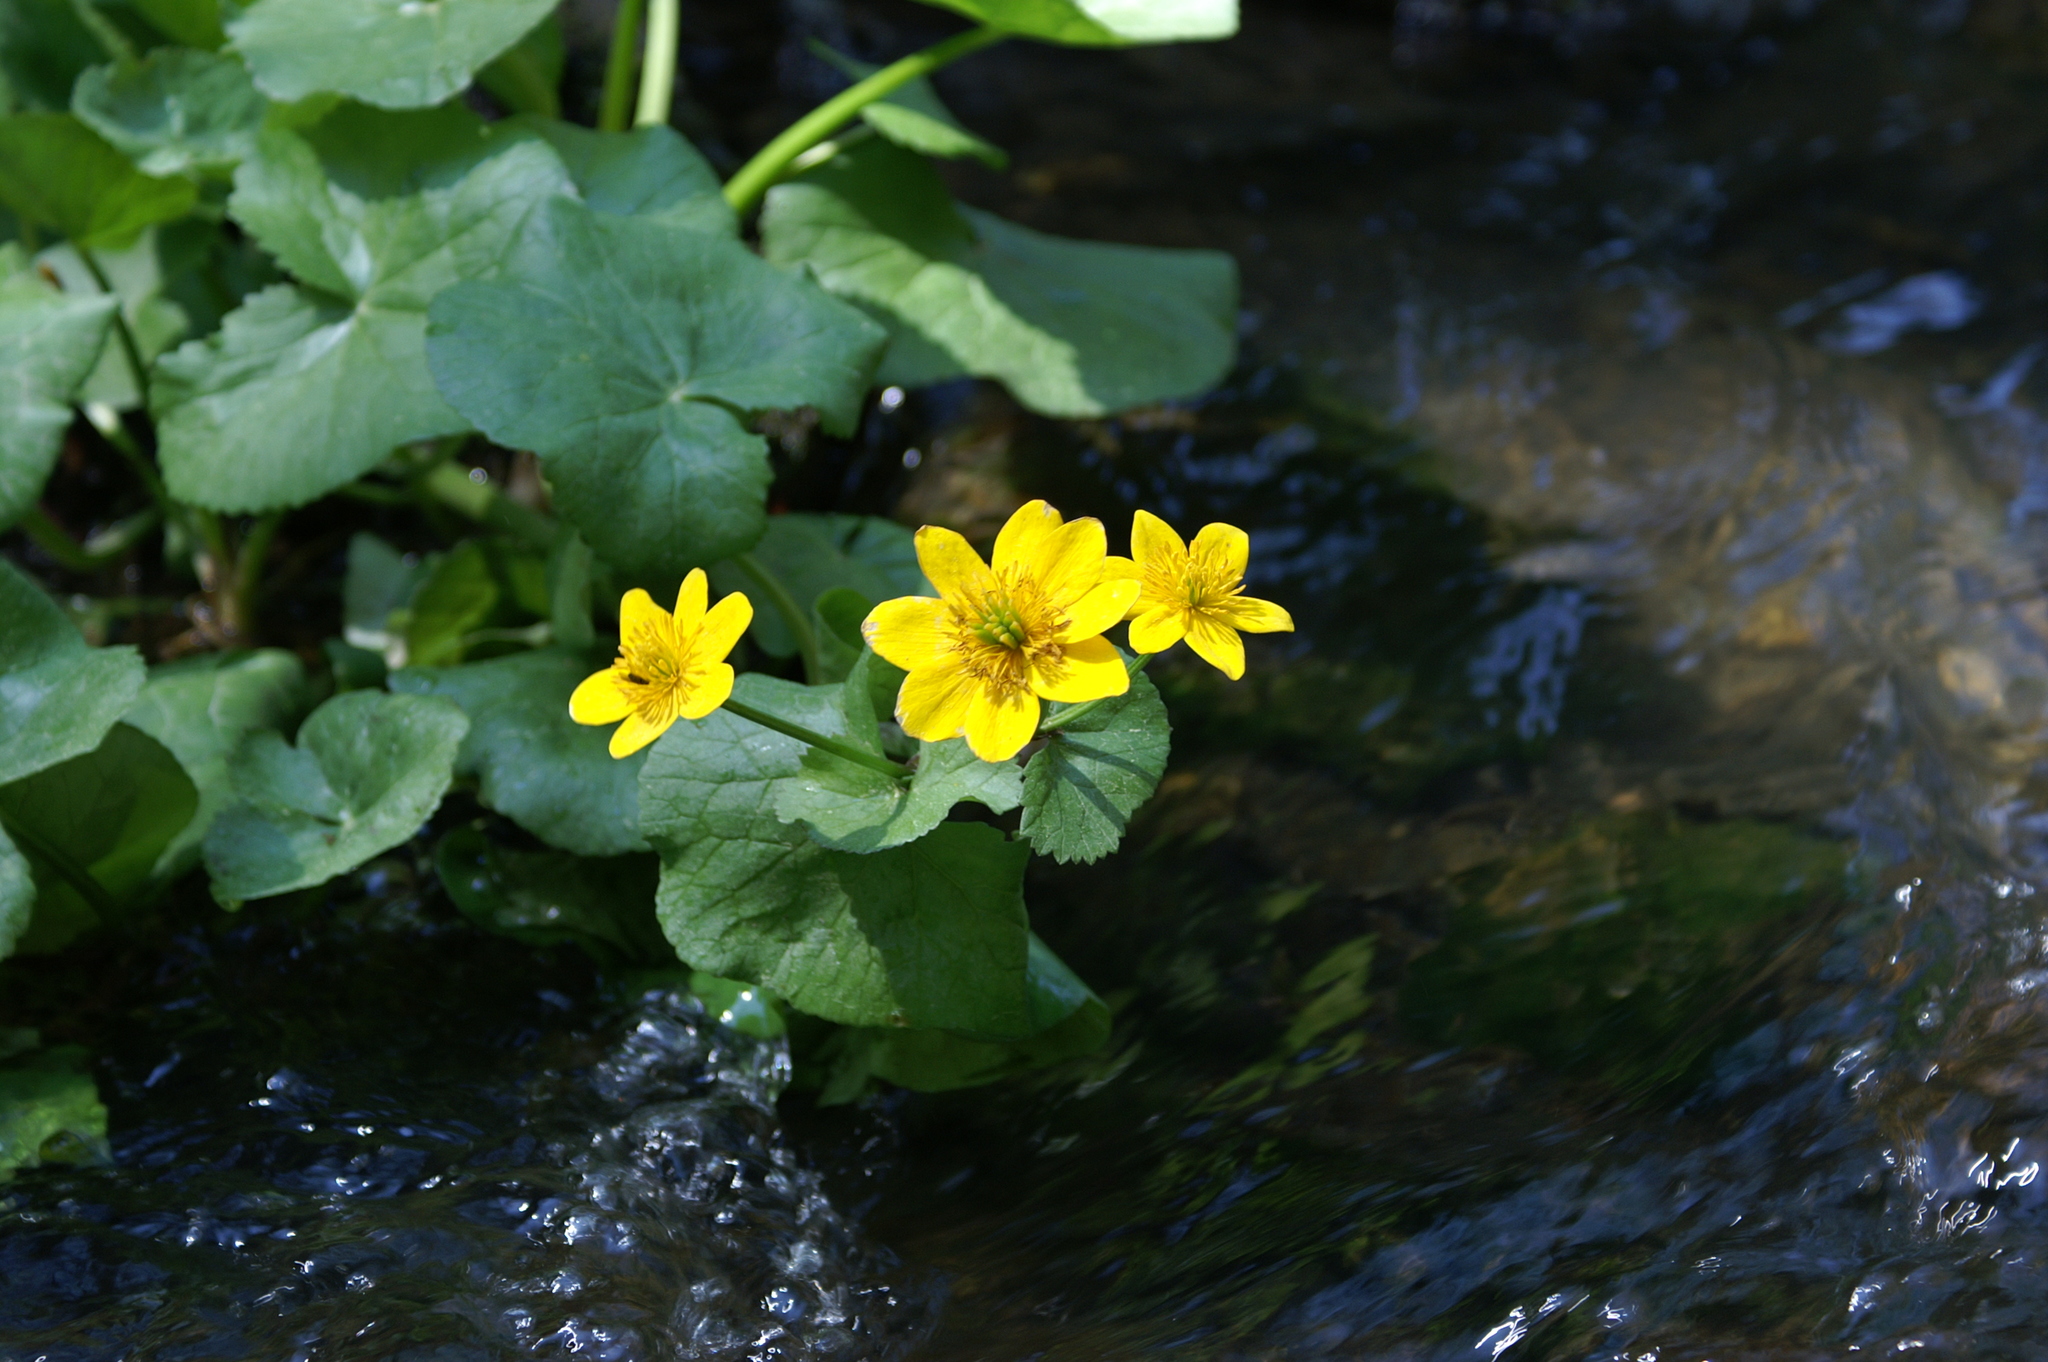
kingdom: Plantae
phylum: Tracheophyta
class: Magnoliopsida
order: Ranunculales
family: Ranunculaceae
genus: Caltha
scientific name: Caltha palustris
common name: Marsh marigold
